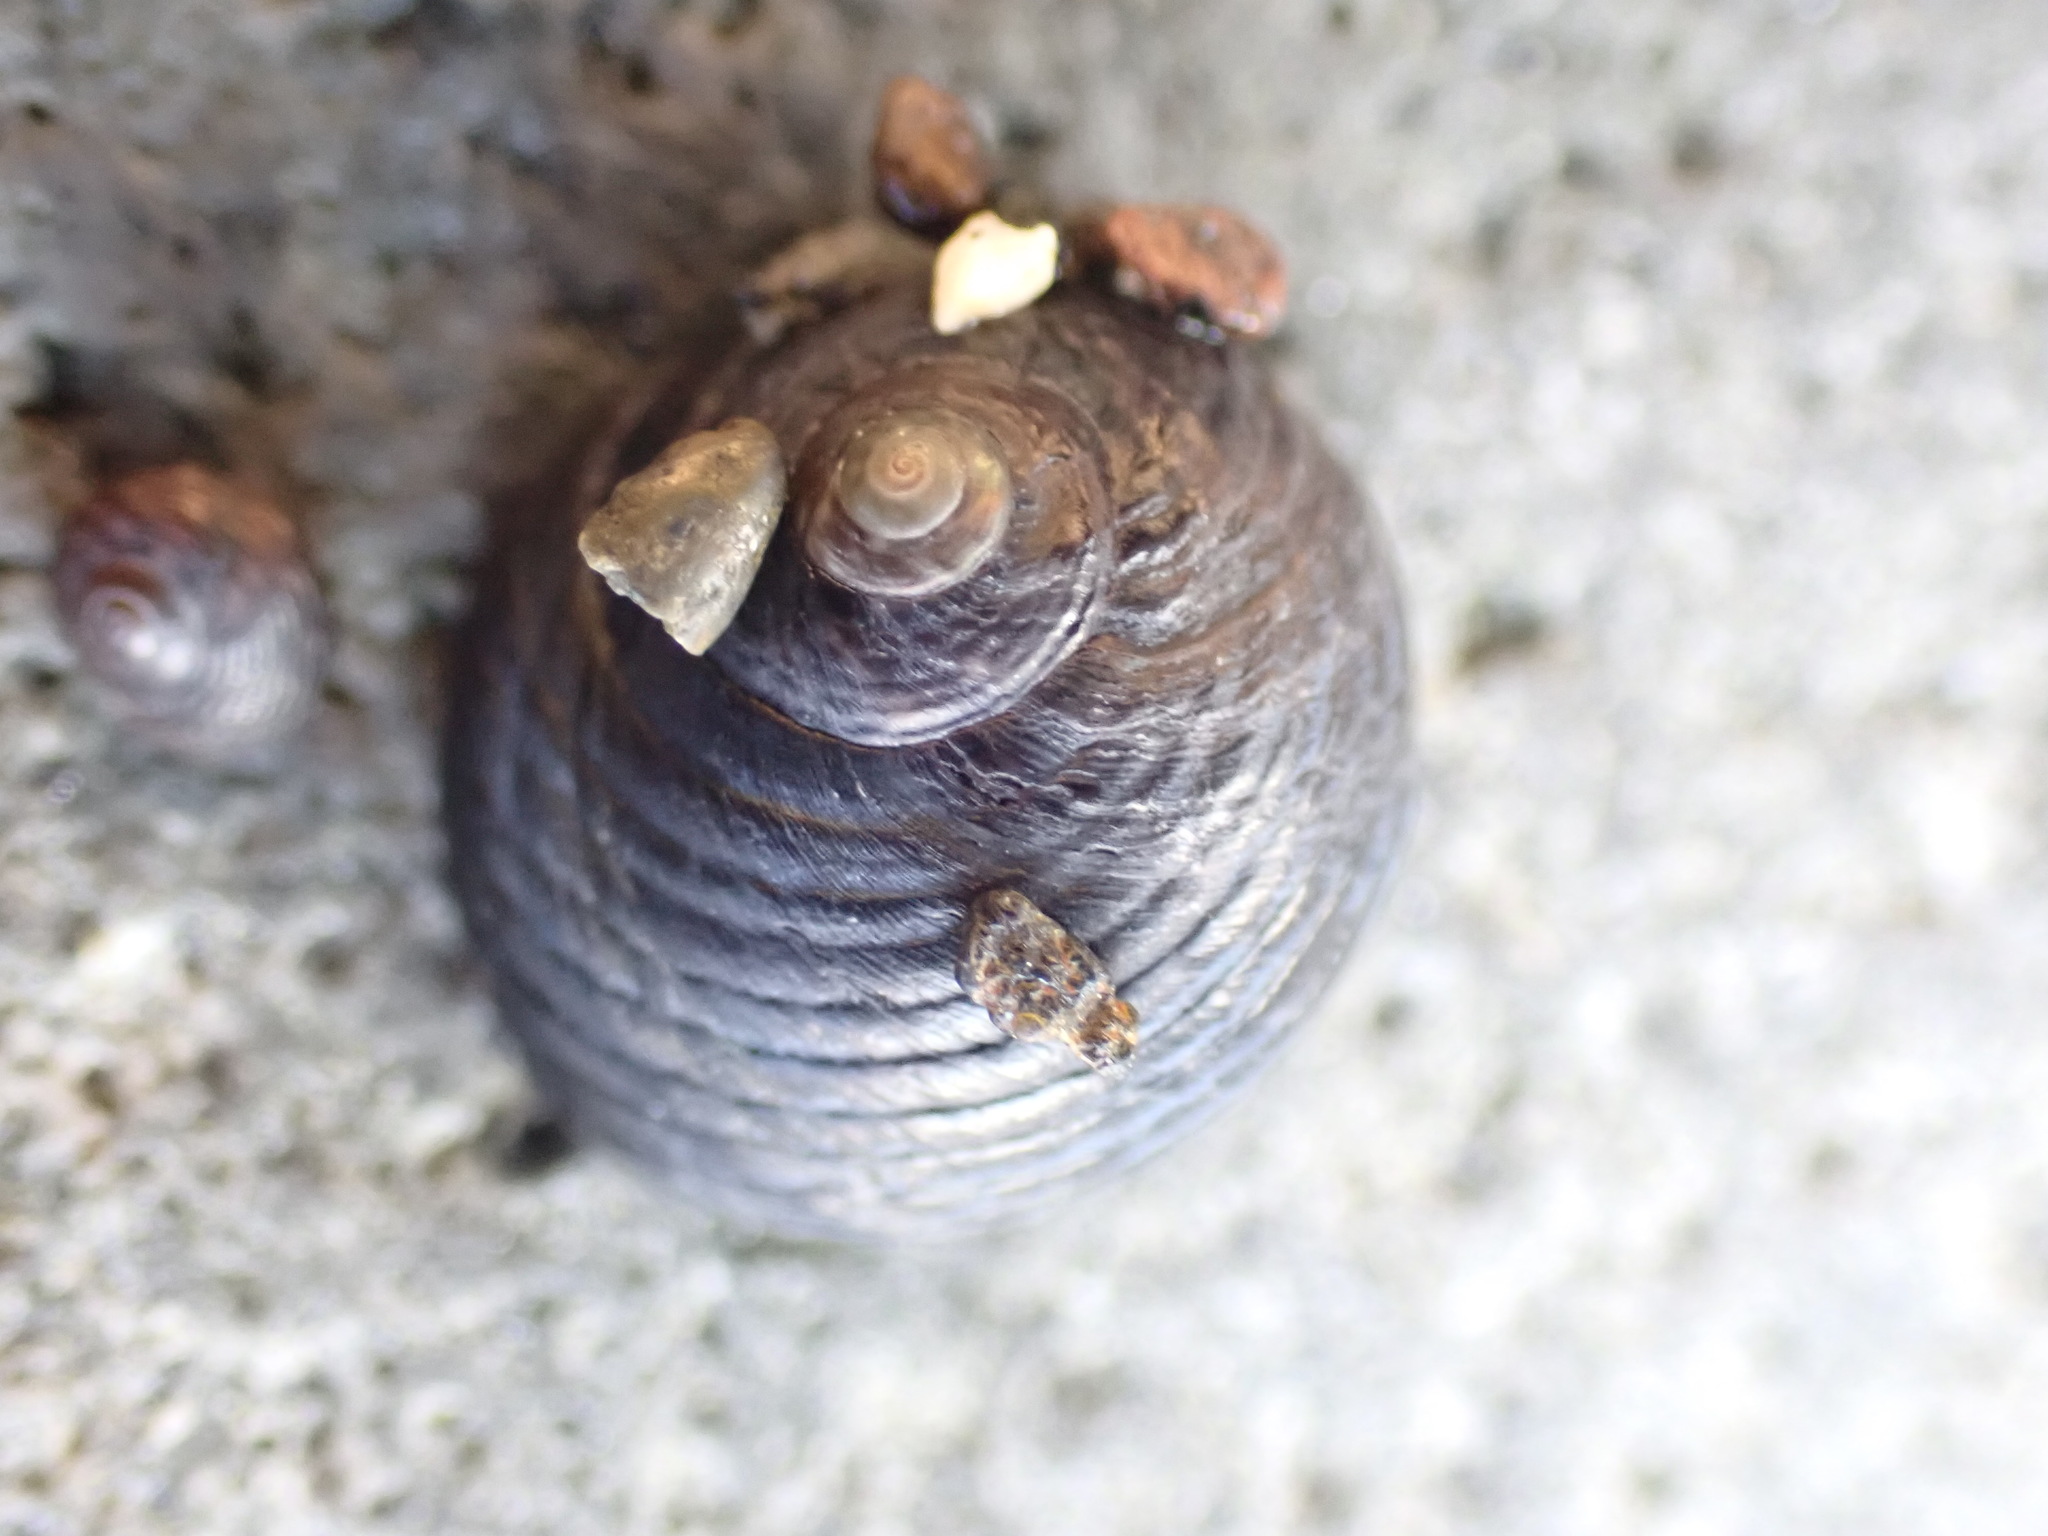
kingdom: Animalia
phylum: Mollusca
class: Gastropoda
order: Trochida
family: Trochidae
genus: Diloma
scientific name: Diloma zelandicum
